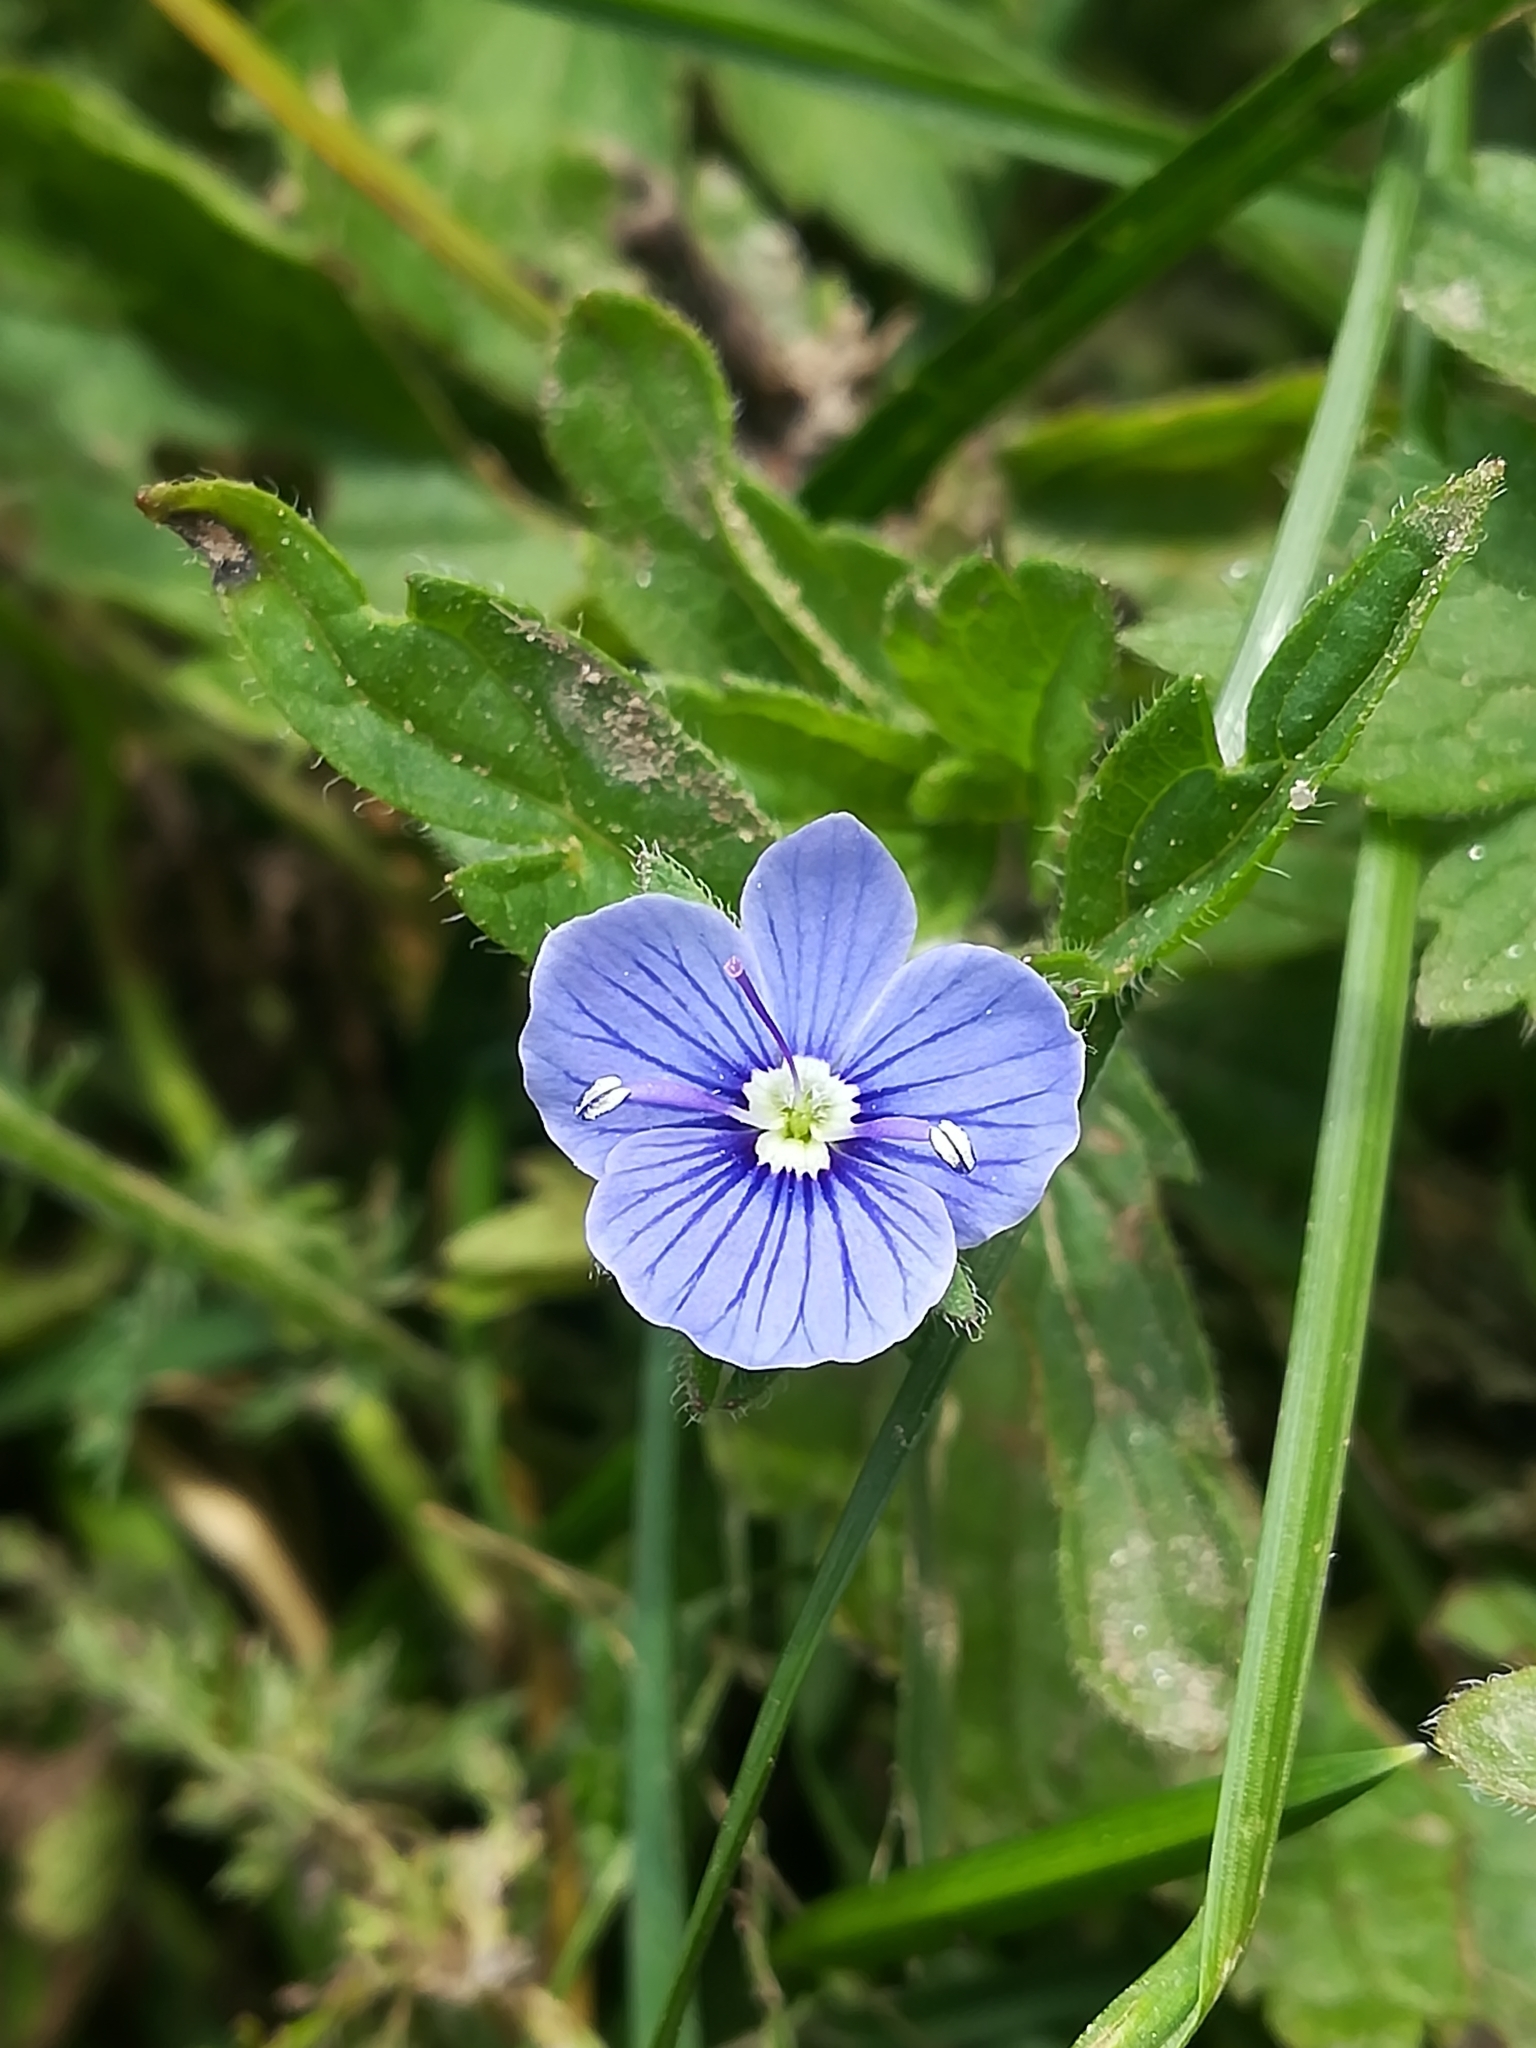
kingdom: Plantae
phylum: Tracheophyta
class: Magnoliopsida
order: Lamiales
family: Plantaginaceae
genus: Veronica
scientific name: Veronica chamaedrys
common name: Germander speedwell
